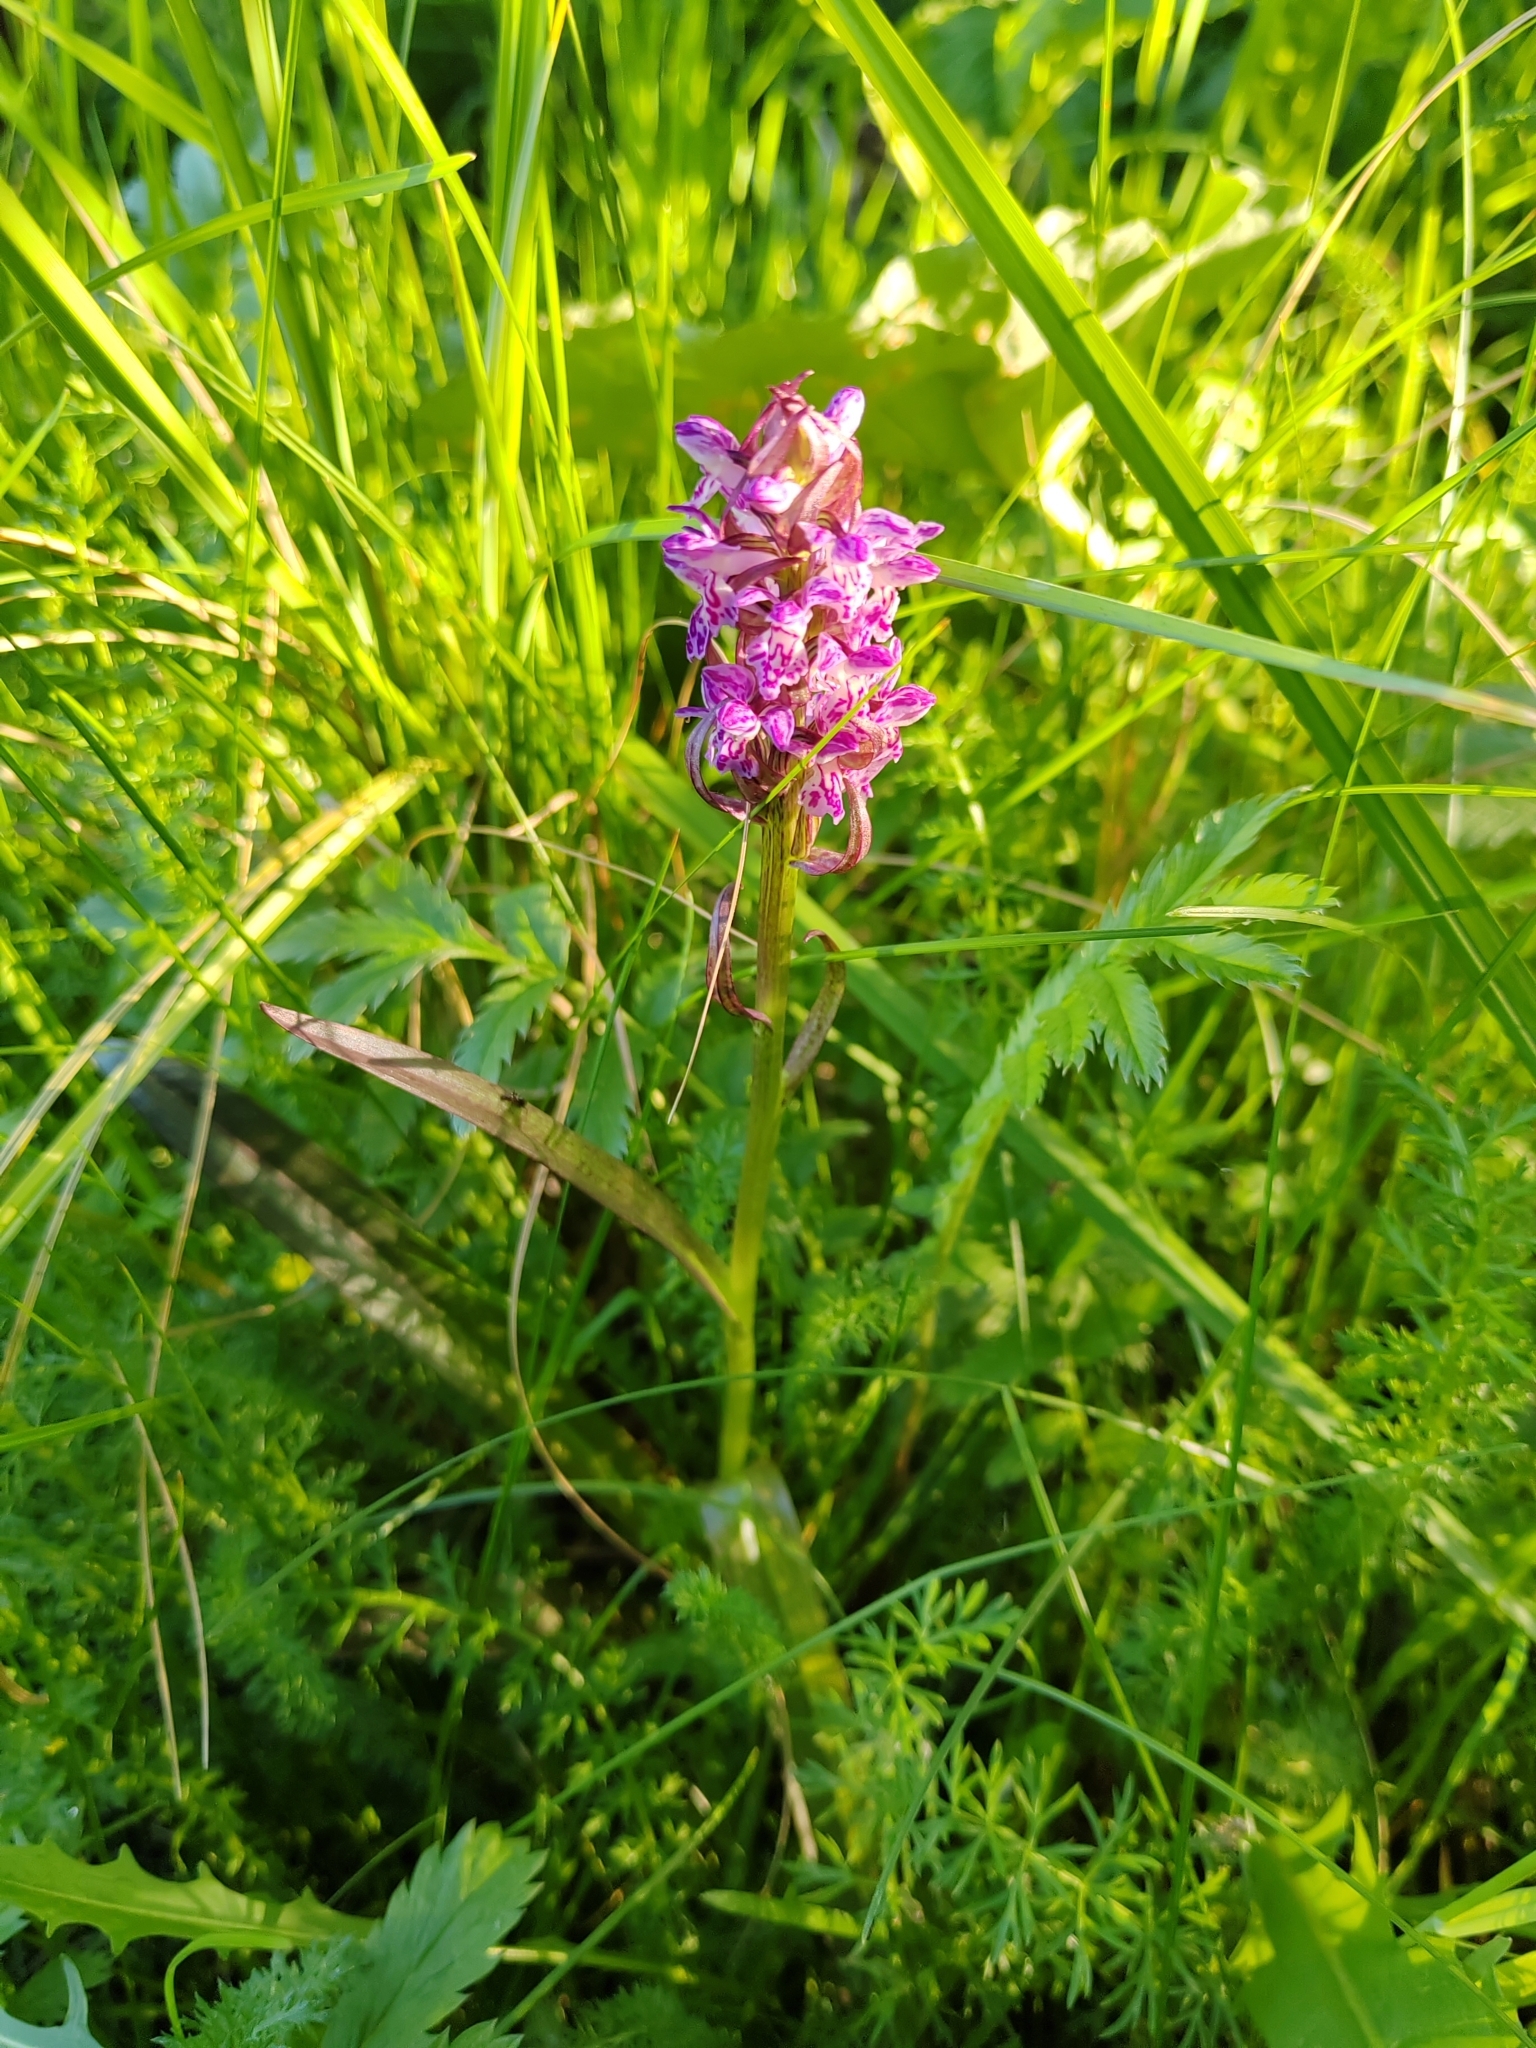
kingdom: Plantae
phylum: Tracheophyta
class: Liliopsida
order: Asparagales
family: Orchidaceae
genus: Dactylorhiza
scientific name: Dactylorhiza incarnata
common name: Early marsh-orchid
